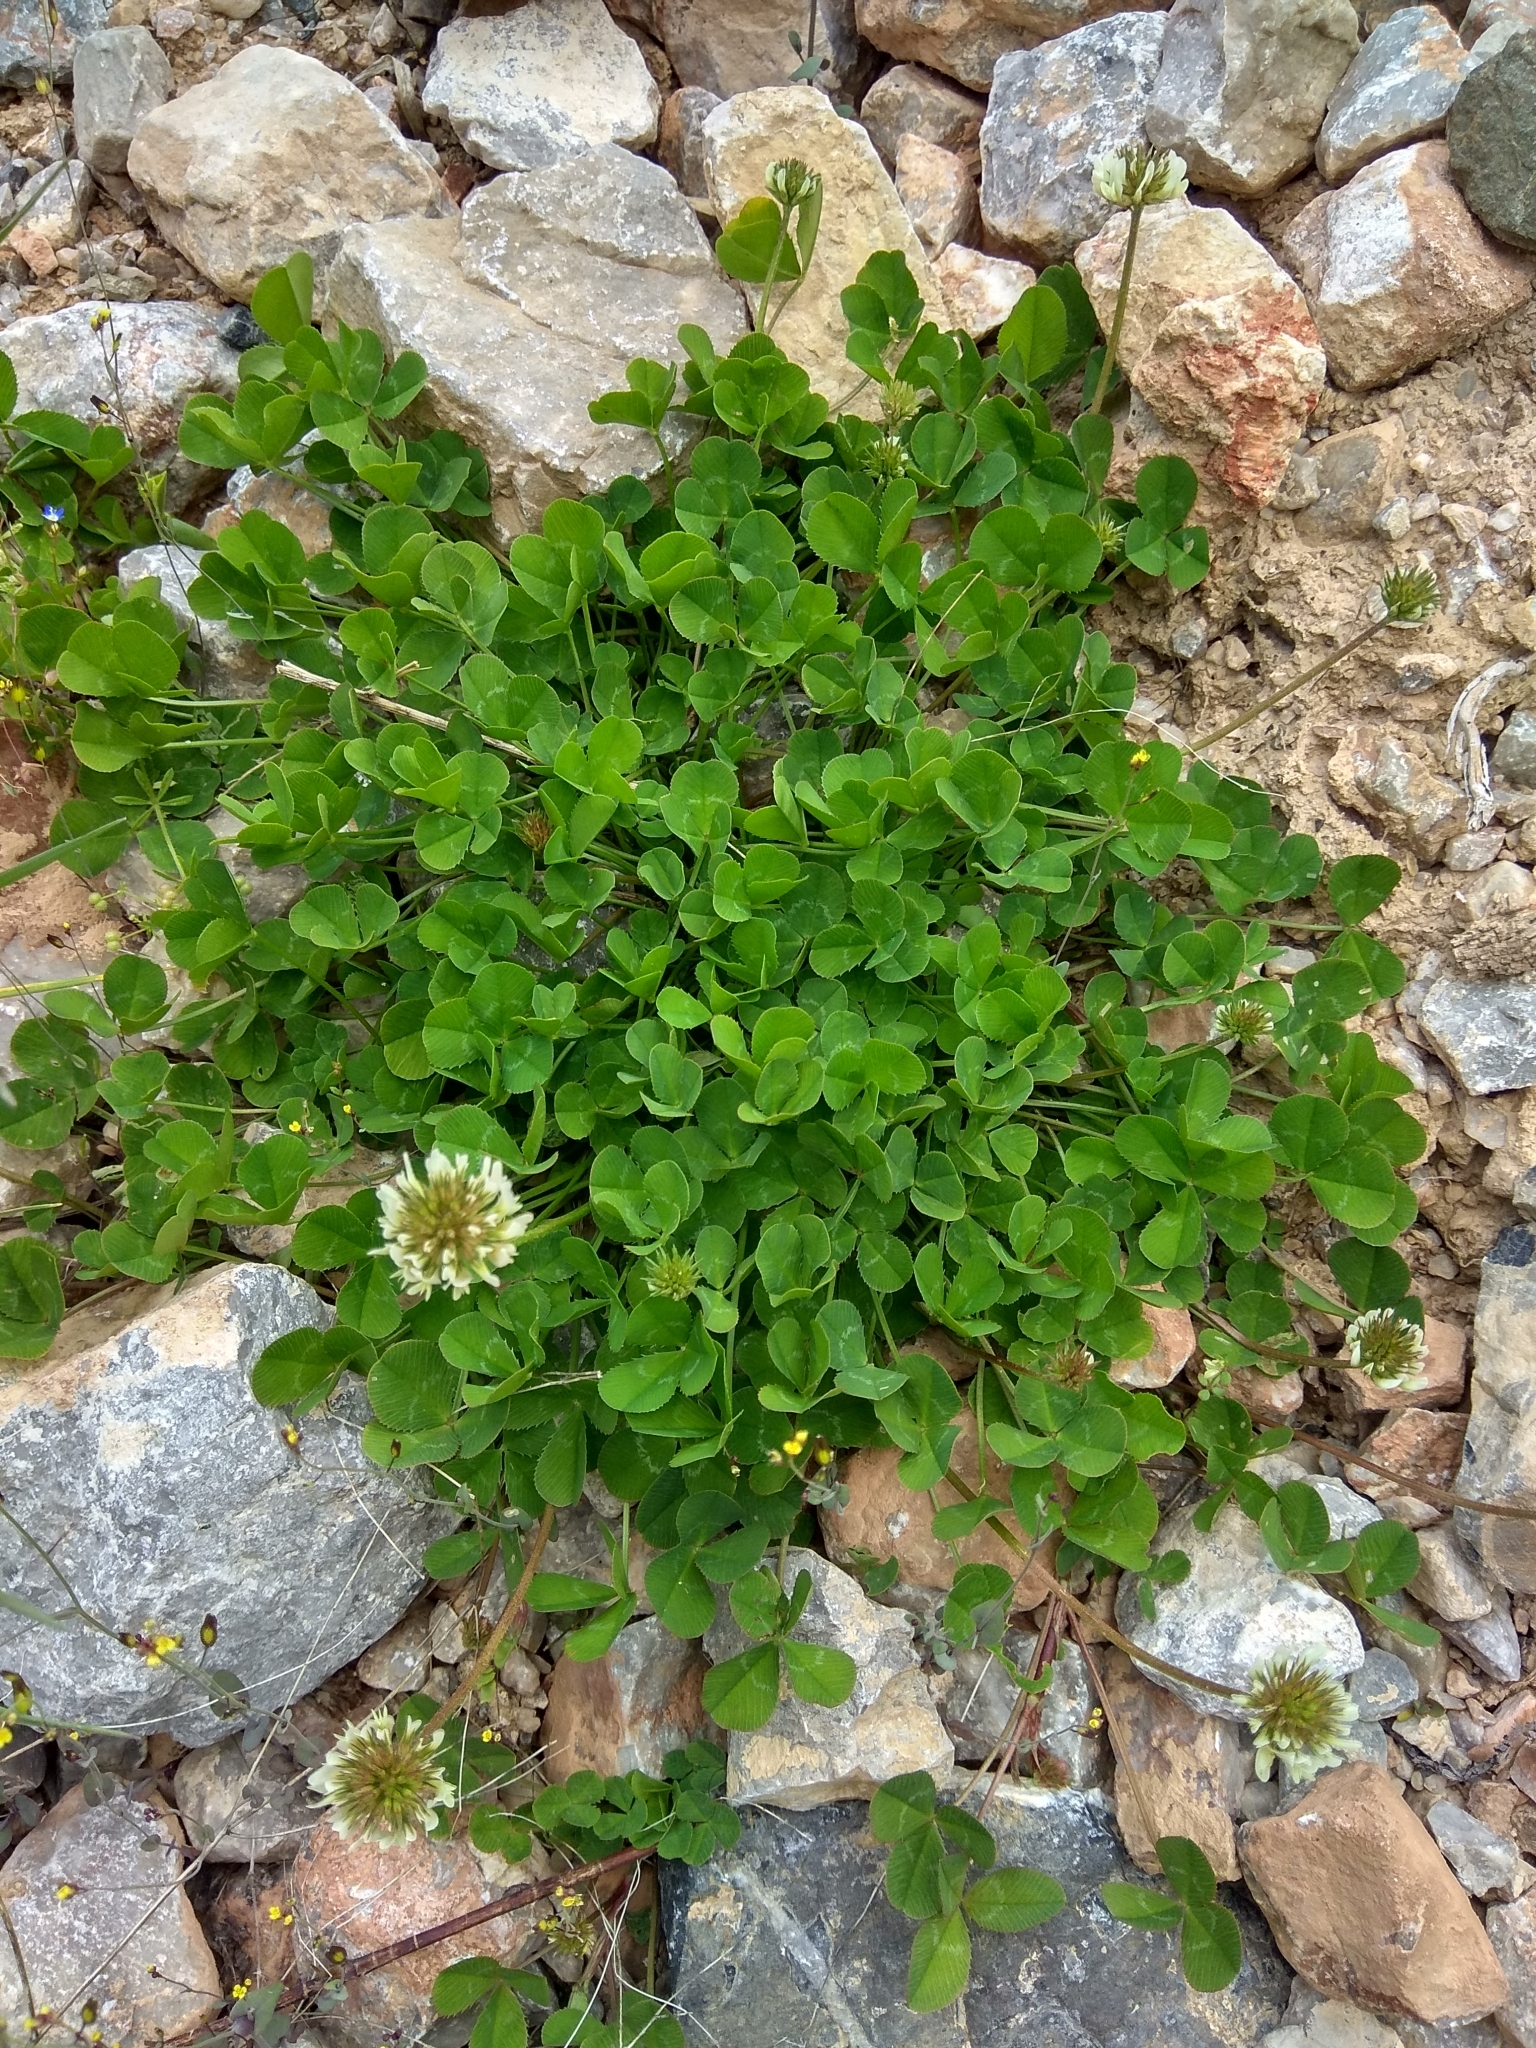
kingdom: Plantae
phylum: Tracheophyta
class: Magnoliopsida
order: Fabales
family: Fabaceae
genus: Trifolium
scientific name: Trifolium repens
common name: White clover
